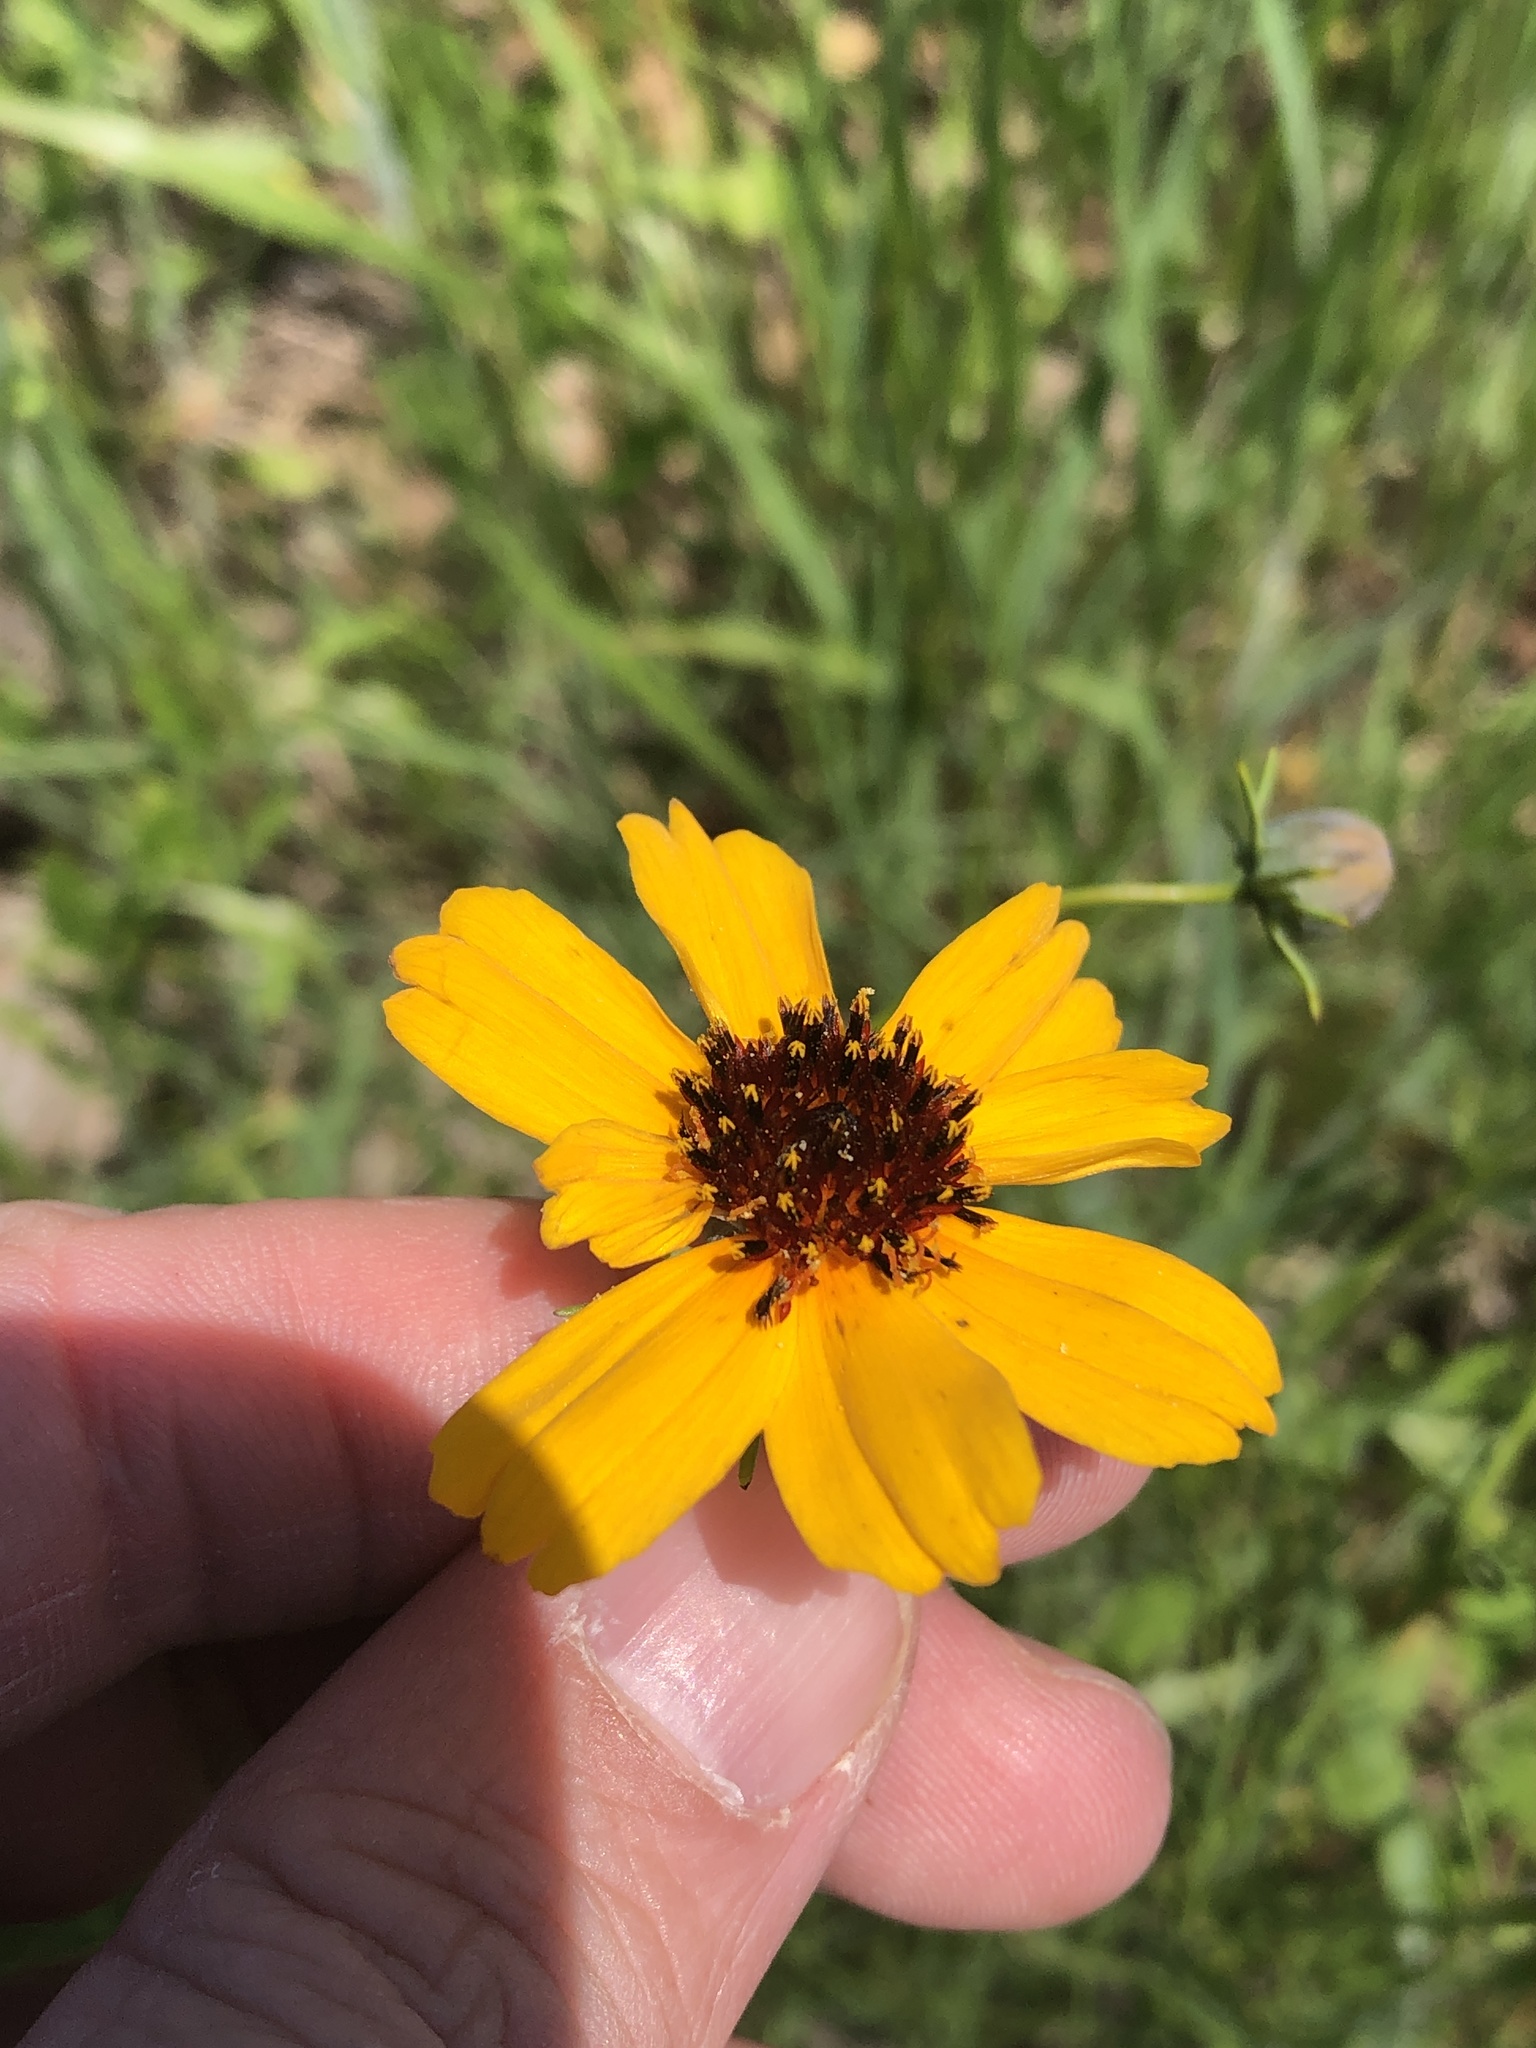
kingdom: Plantae
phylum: Tracheophyta
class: Magnoliopsida
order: Asterales
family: Asteraceae
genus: Thelesperma
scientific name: Thelesperma filifolium
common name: Stiff greenthread
